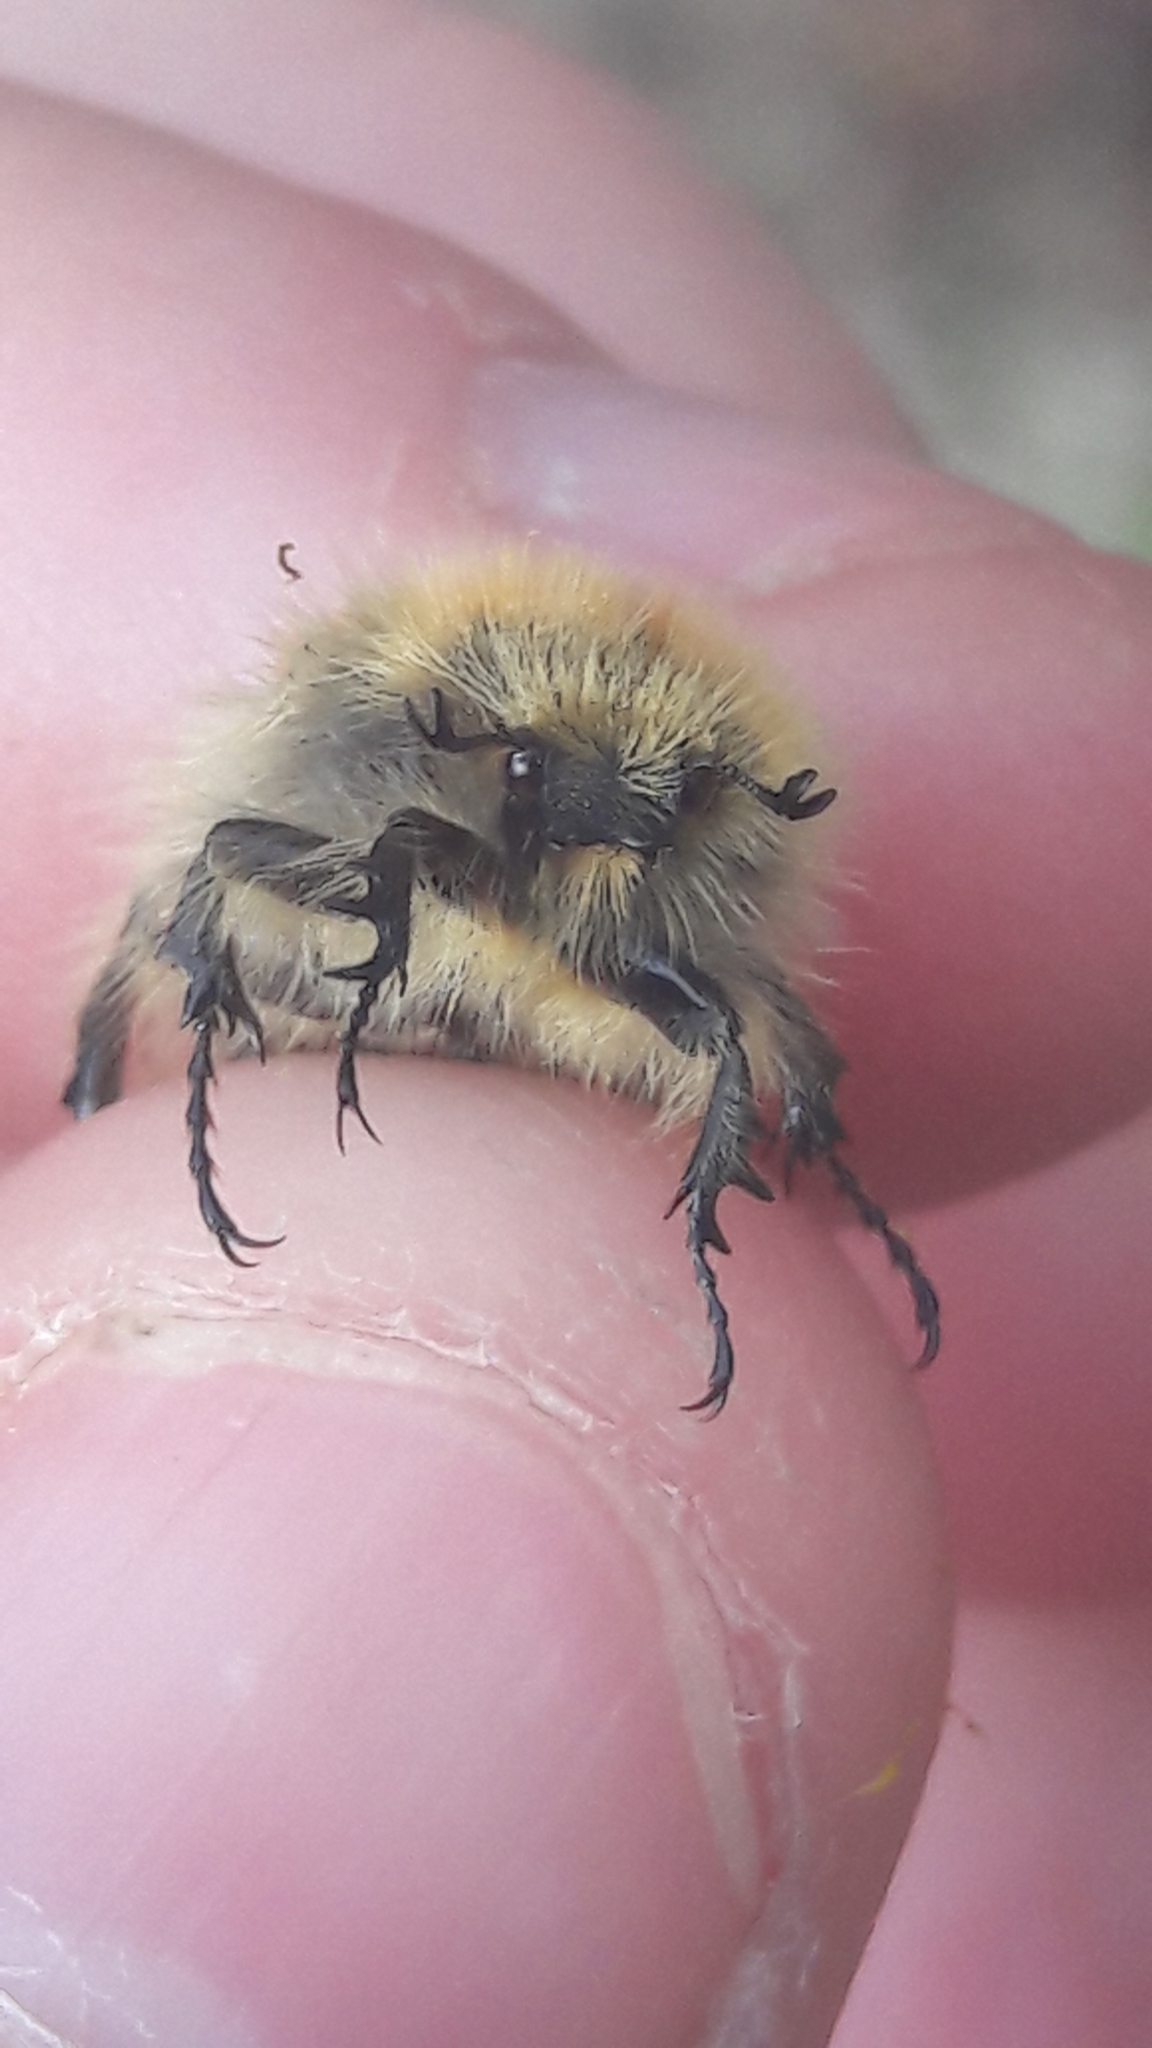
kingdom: Animalia
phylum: Arthropoda
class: Insecta
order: Coleoptera
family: Scarabaeidae
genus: Tropinota
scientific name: Tropinota squalida
